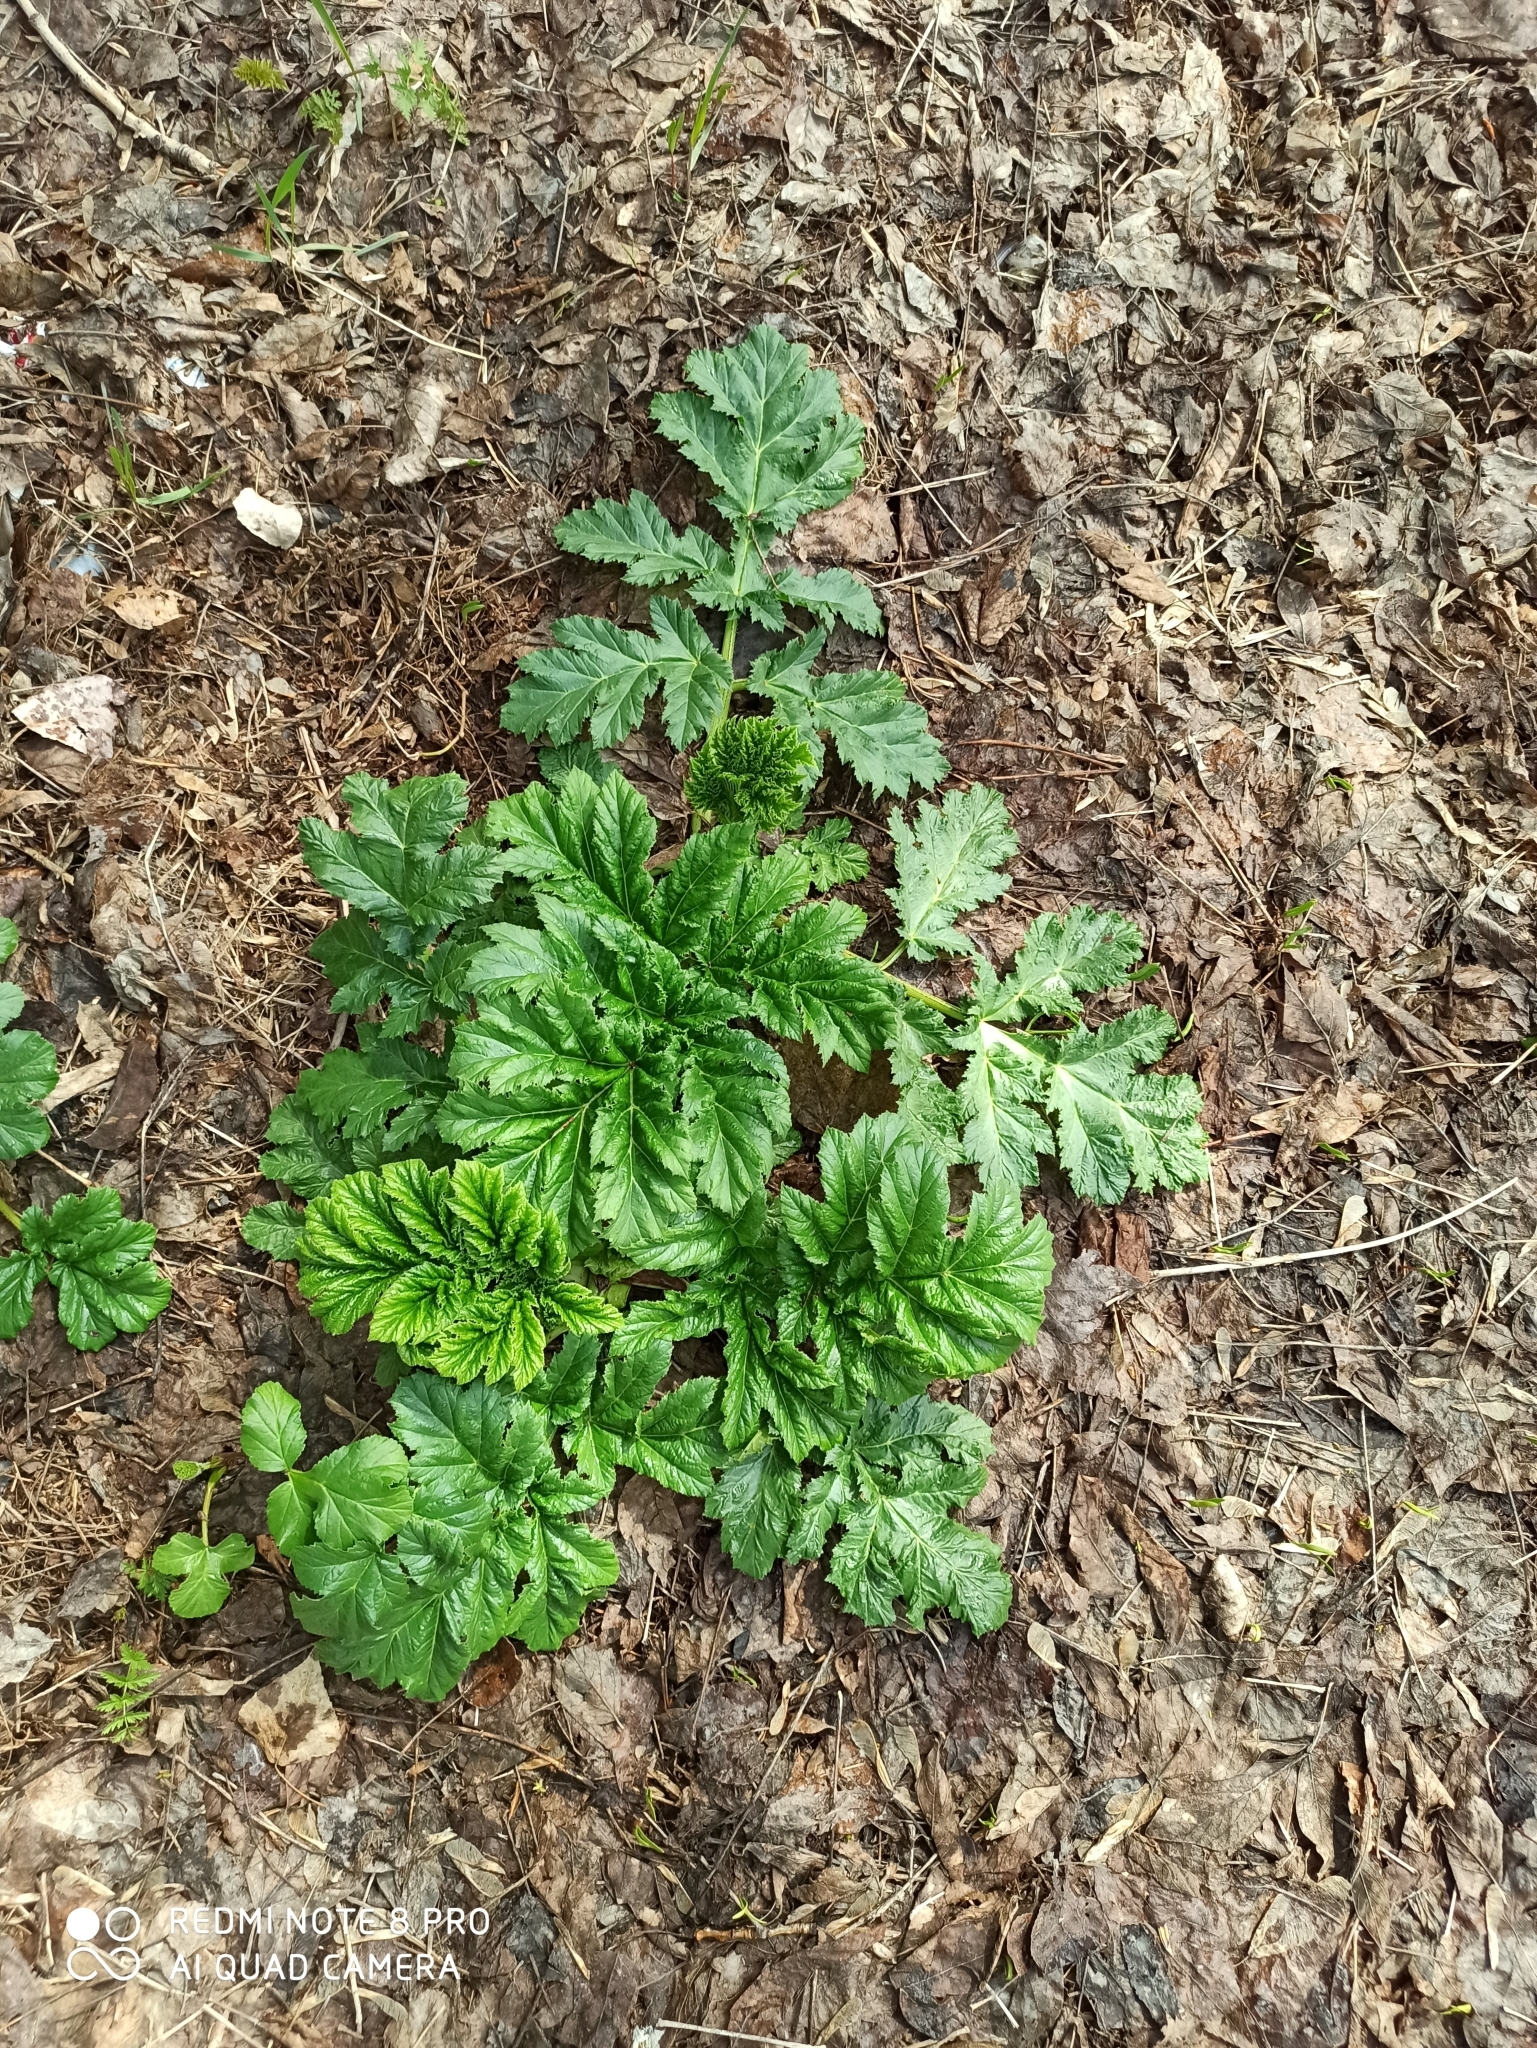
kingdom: Plantae
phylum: Tracheophyta
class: Magnoliopsida
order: Apiales
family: Apiaceae
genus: Heracleum
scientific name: Heracleum sosnowskyi
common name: Sosnowsky's hogweed
